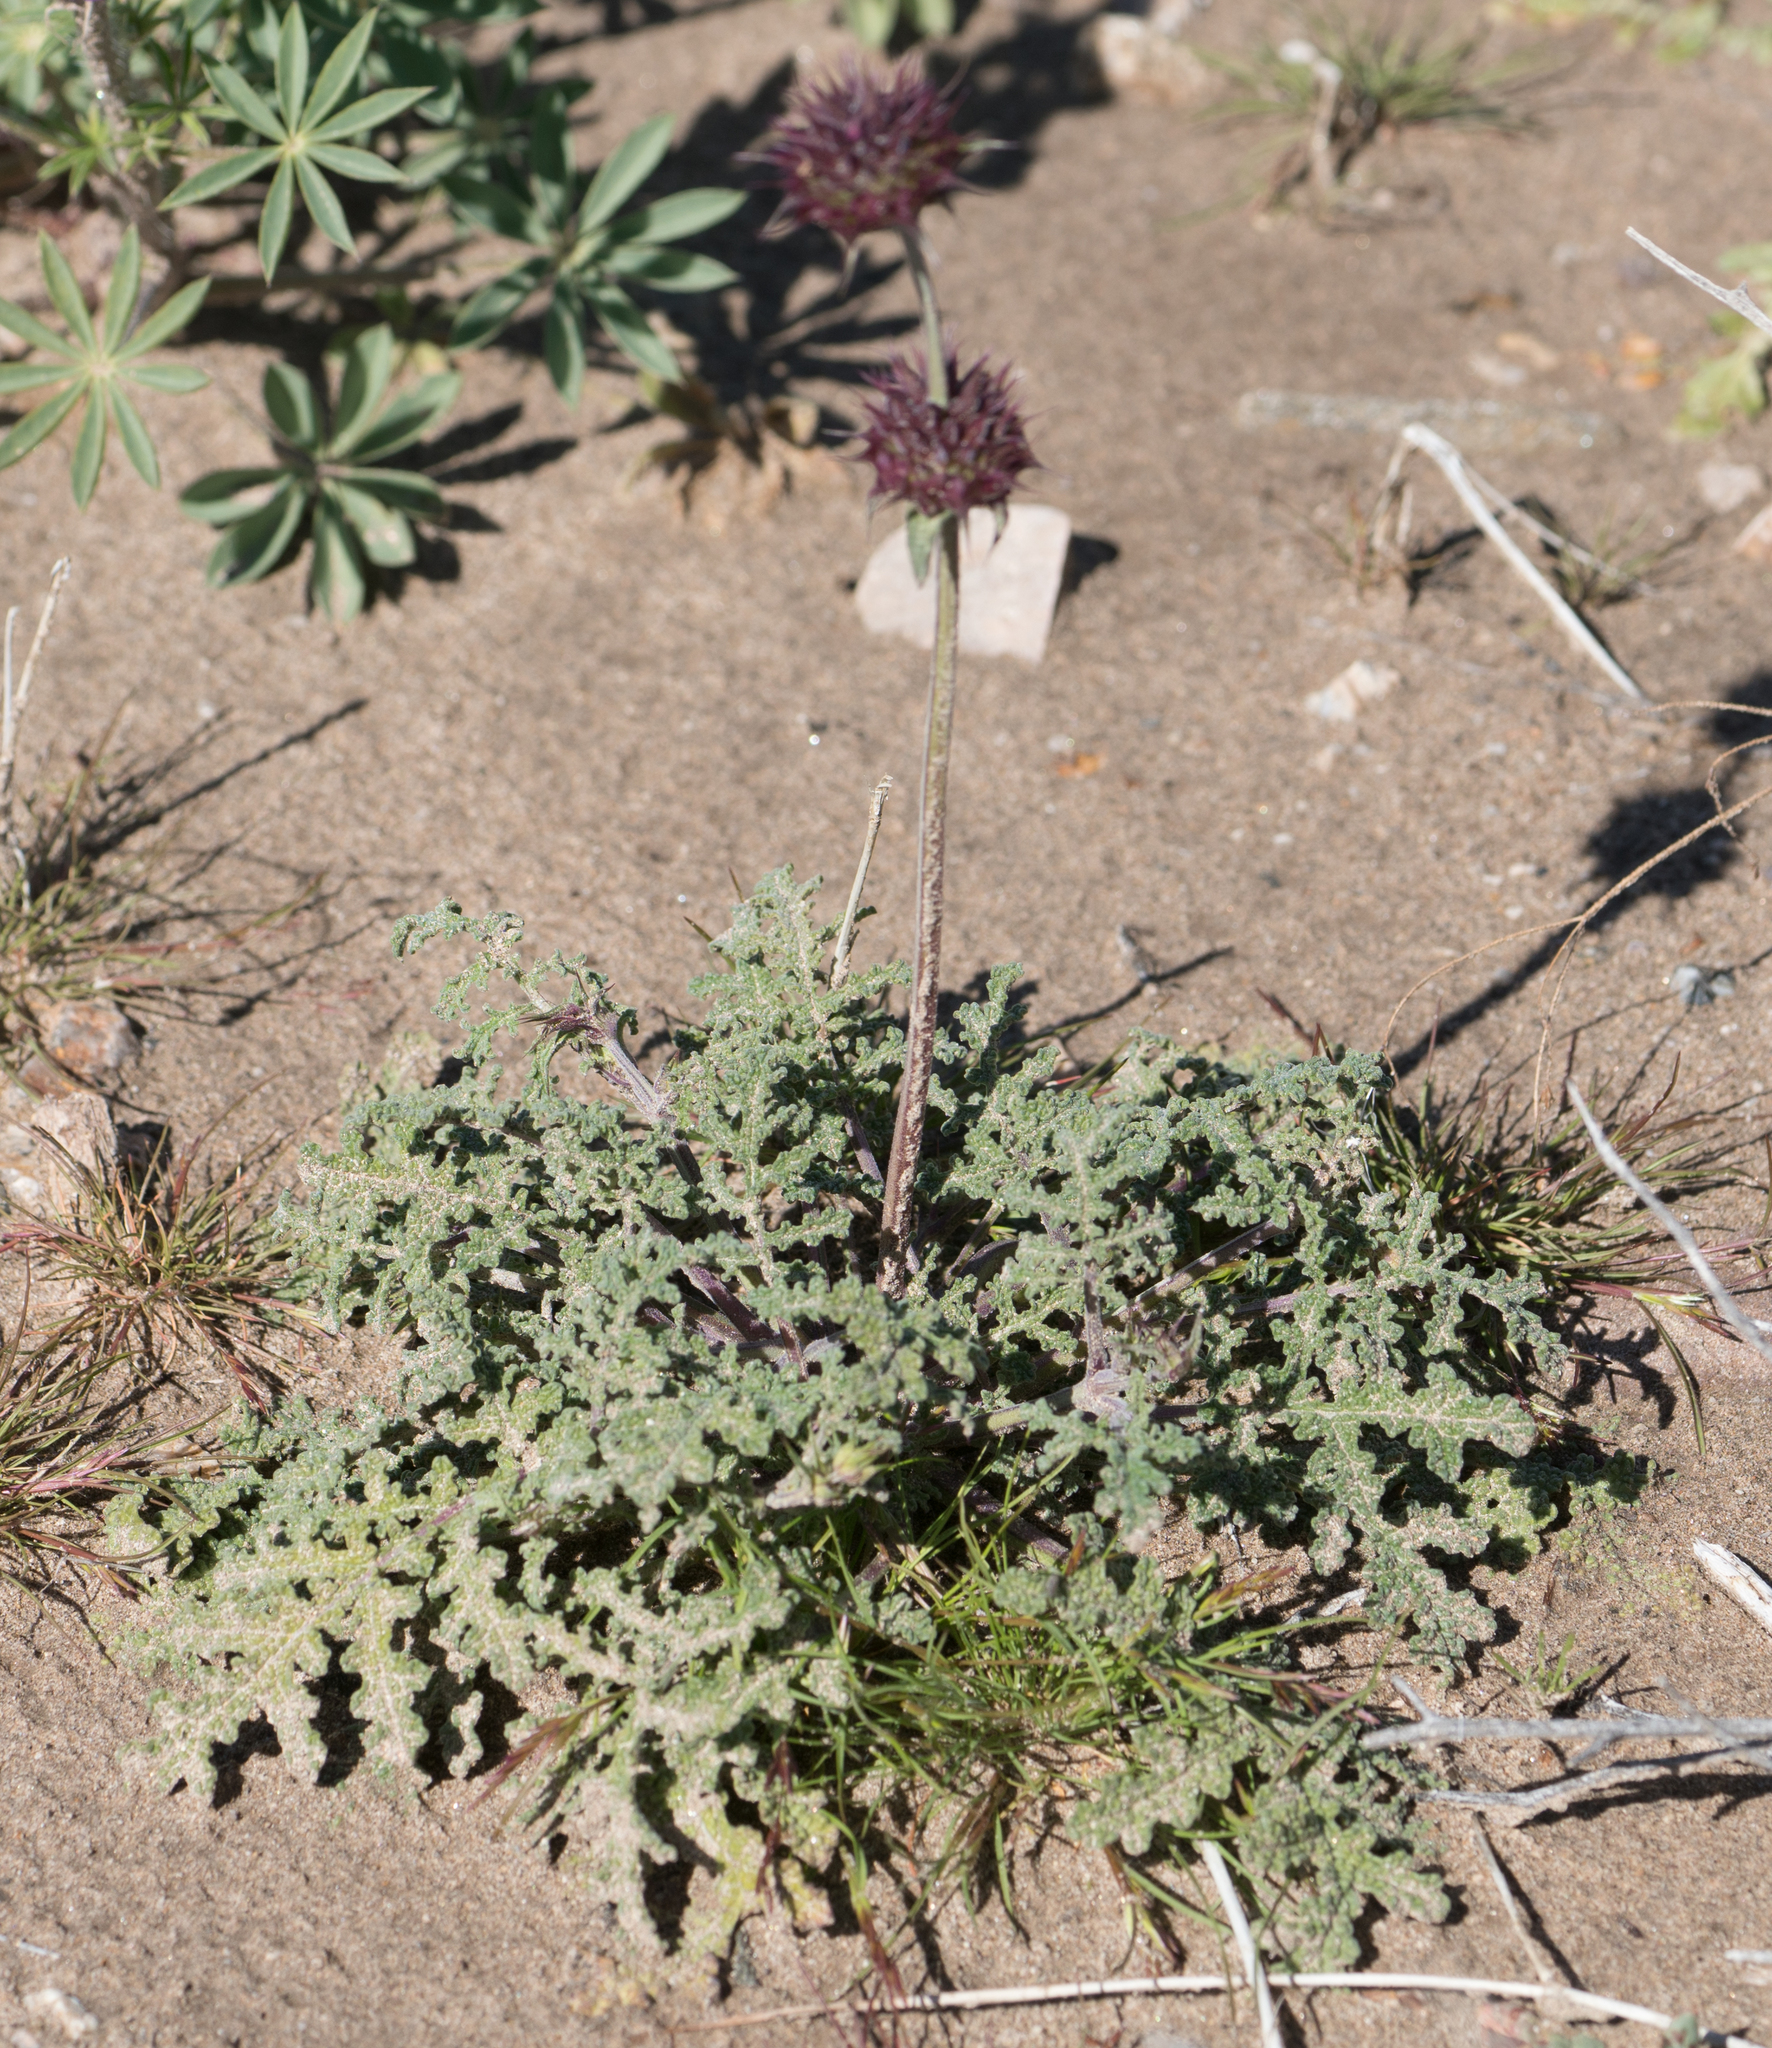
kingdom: Plantae
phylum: Tracheophyta
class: Magnoliopsida
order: Lamiales
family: Lamiaceae
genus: Salvia
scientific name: Salvia columbariae
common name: Chia
